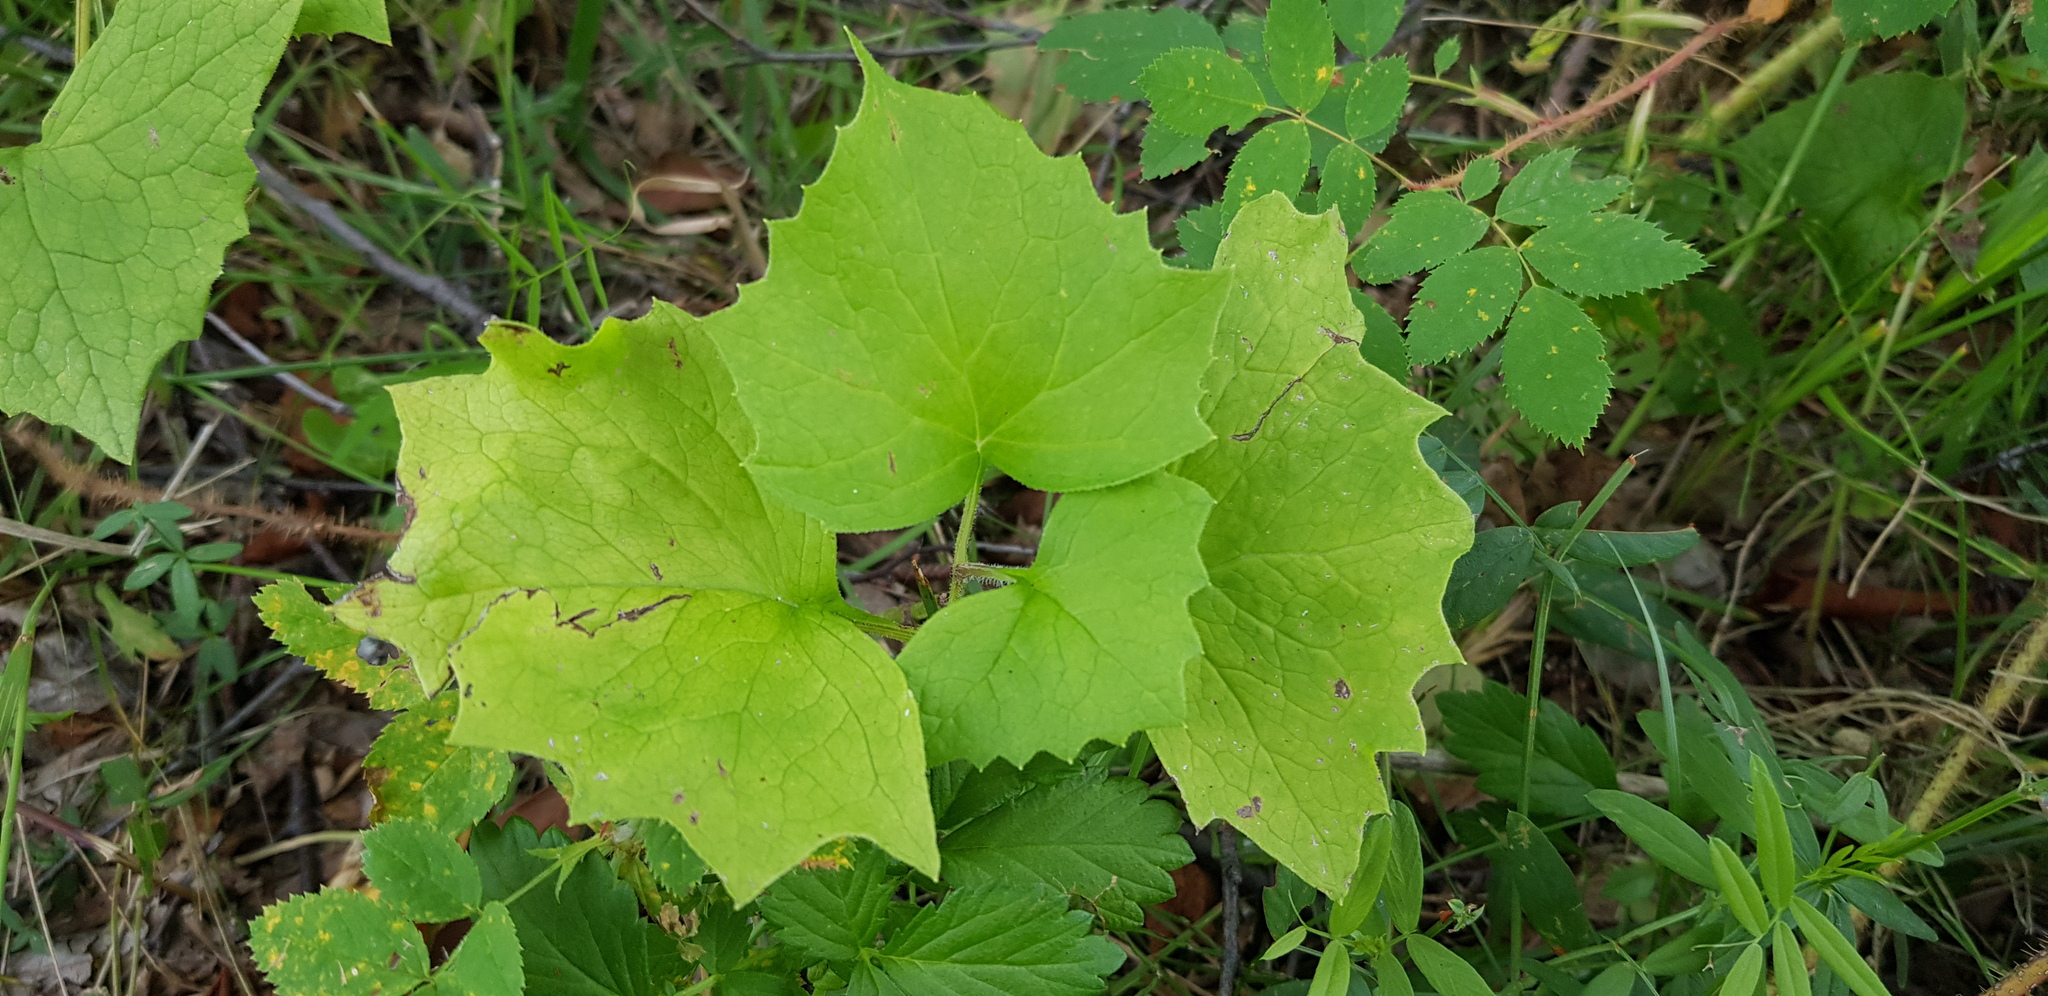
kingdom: Plantae
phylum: Tracheophyta
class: Magnoliopsida
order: Asterales
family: Asteraceae
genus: Parasenecio
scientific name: Parasenecio hastatus
